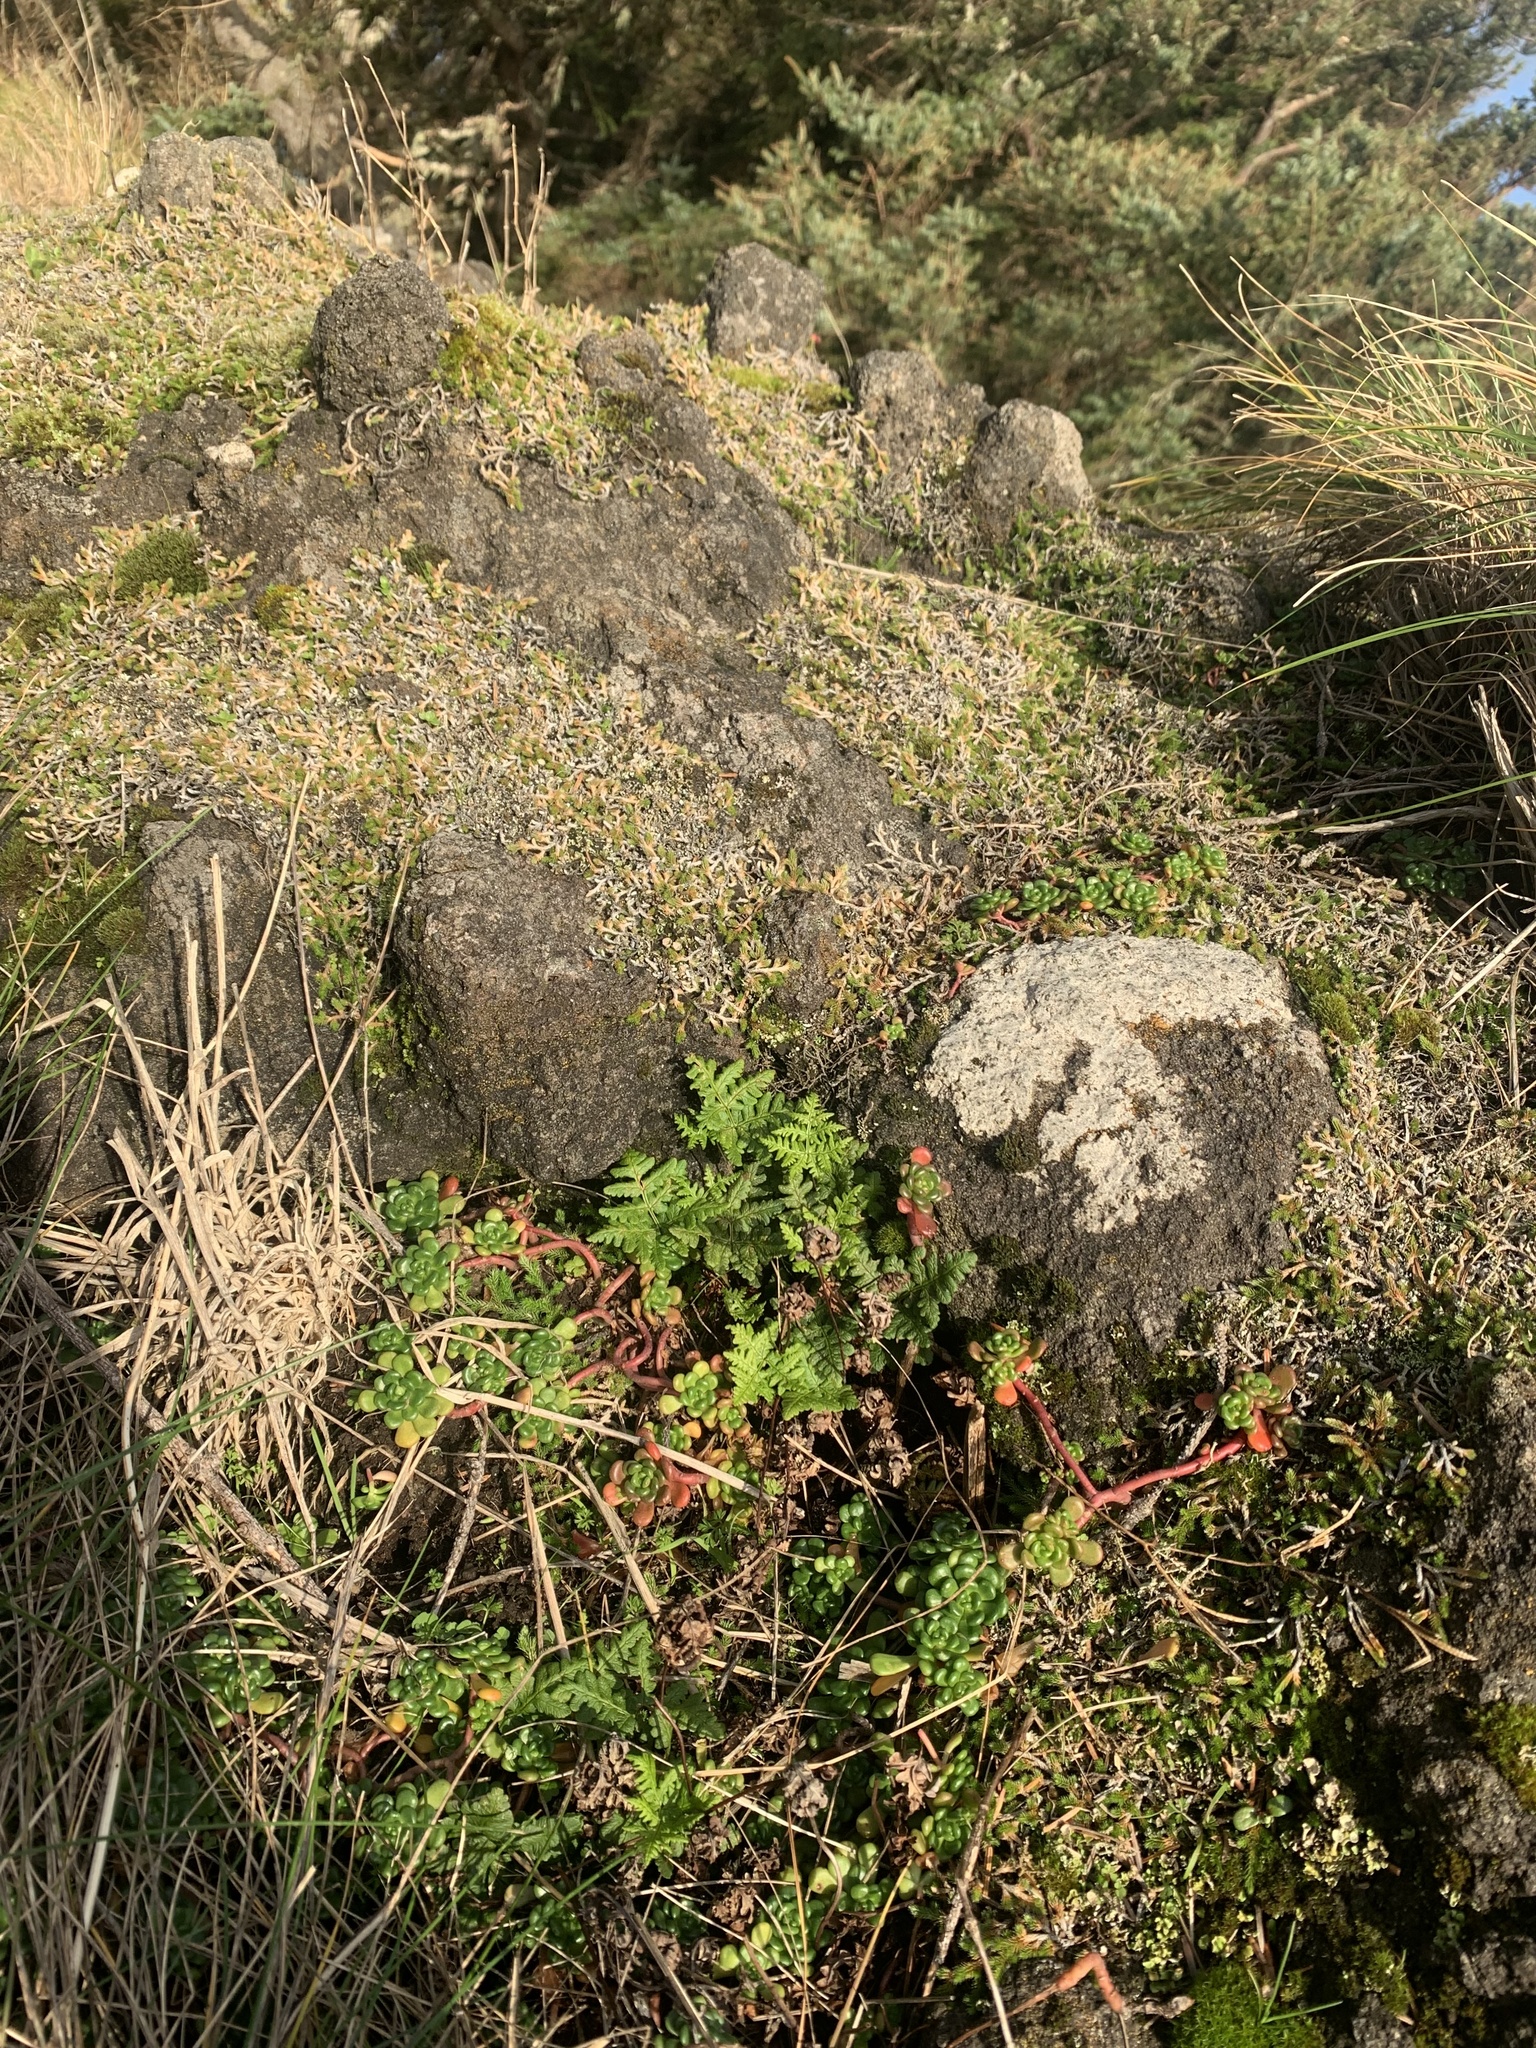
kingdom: Plantae
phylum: Tracheophyta
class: Polypodiopsida
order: Polypodiales
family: Pteridaceae
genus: Pentagramma
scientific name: Pentagramma triangularis
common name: Gold fern
